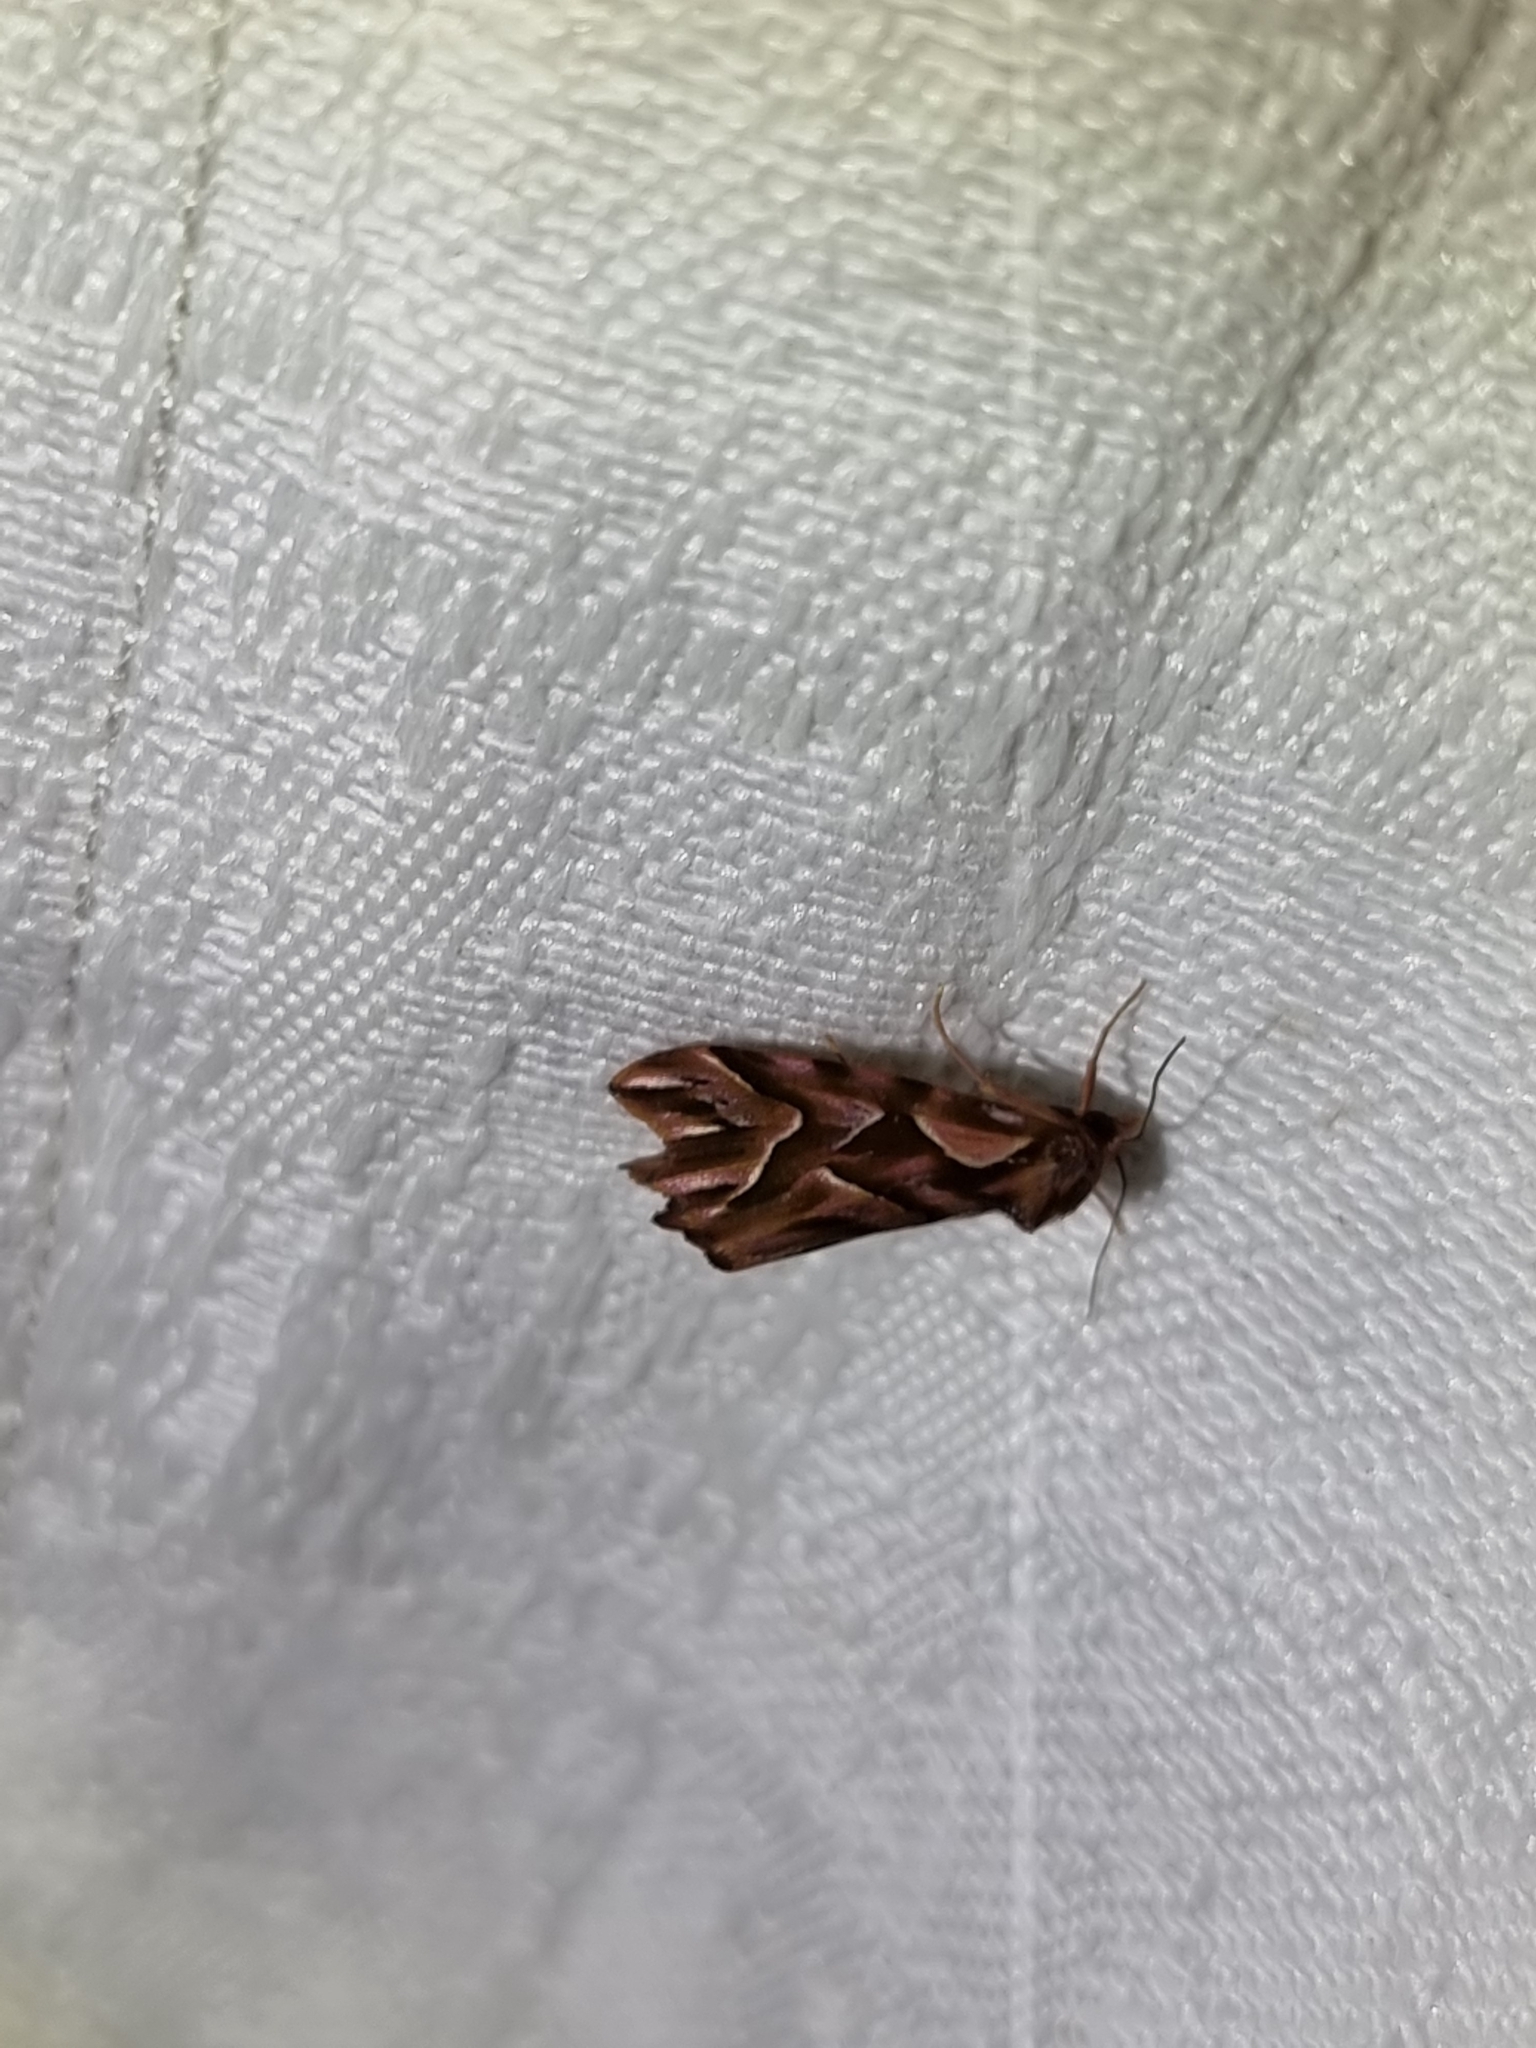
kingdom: Animalia
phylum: Arthropoda
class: Insecta
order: Lepidoptera
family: Noctuidae
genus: Clytoscopa
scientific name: Clytoscopa iorrhoda
